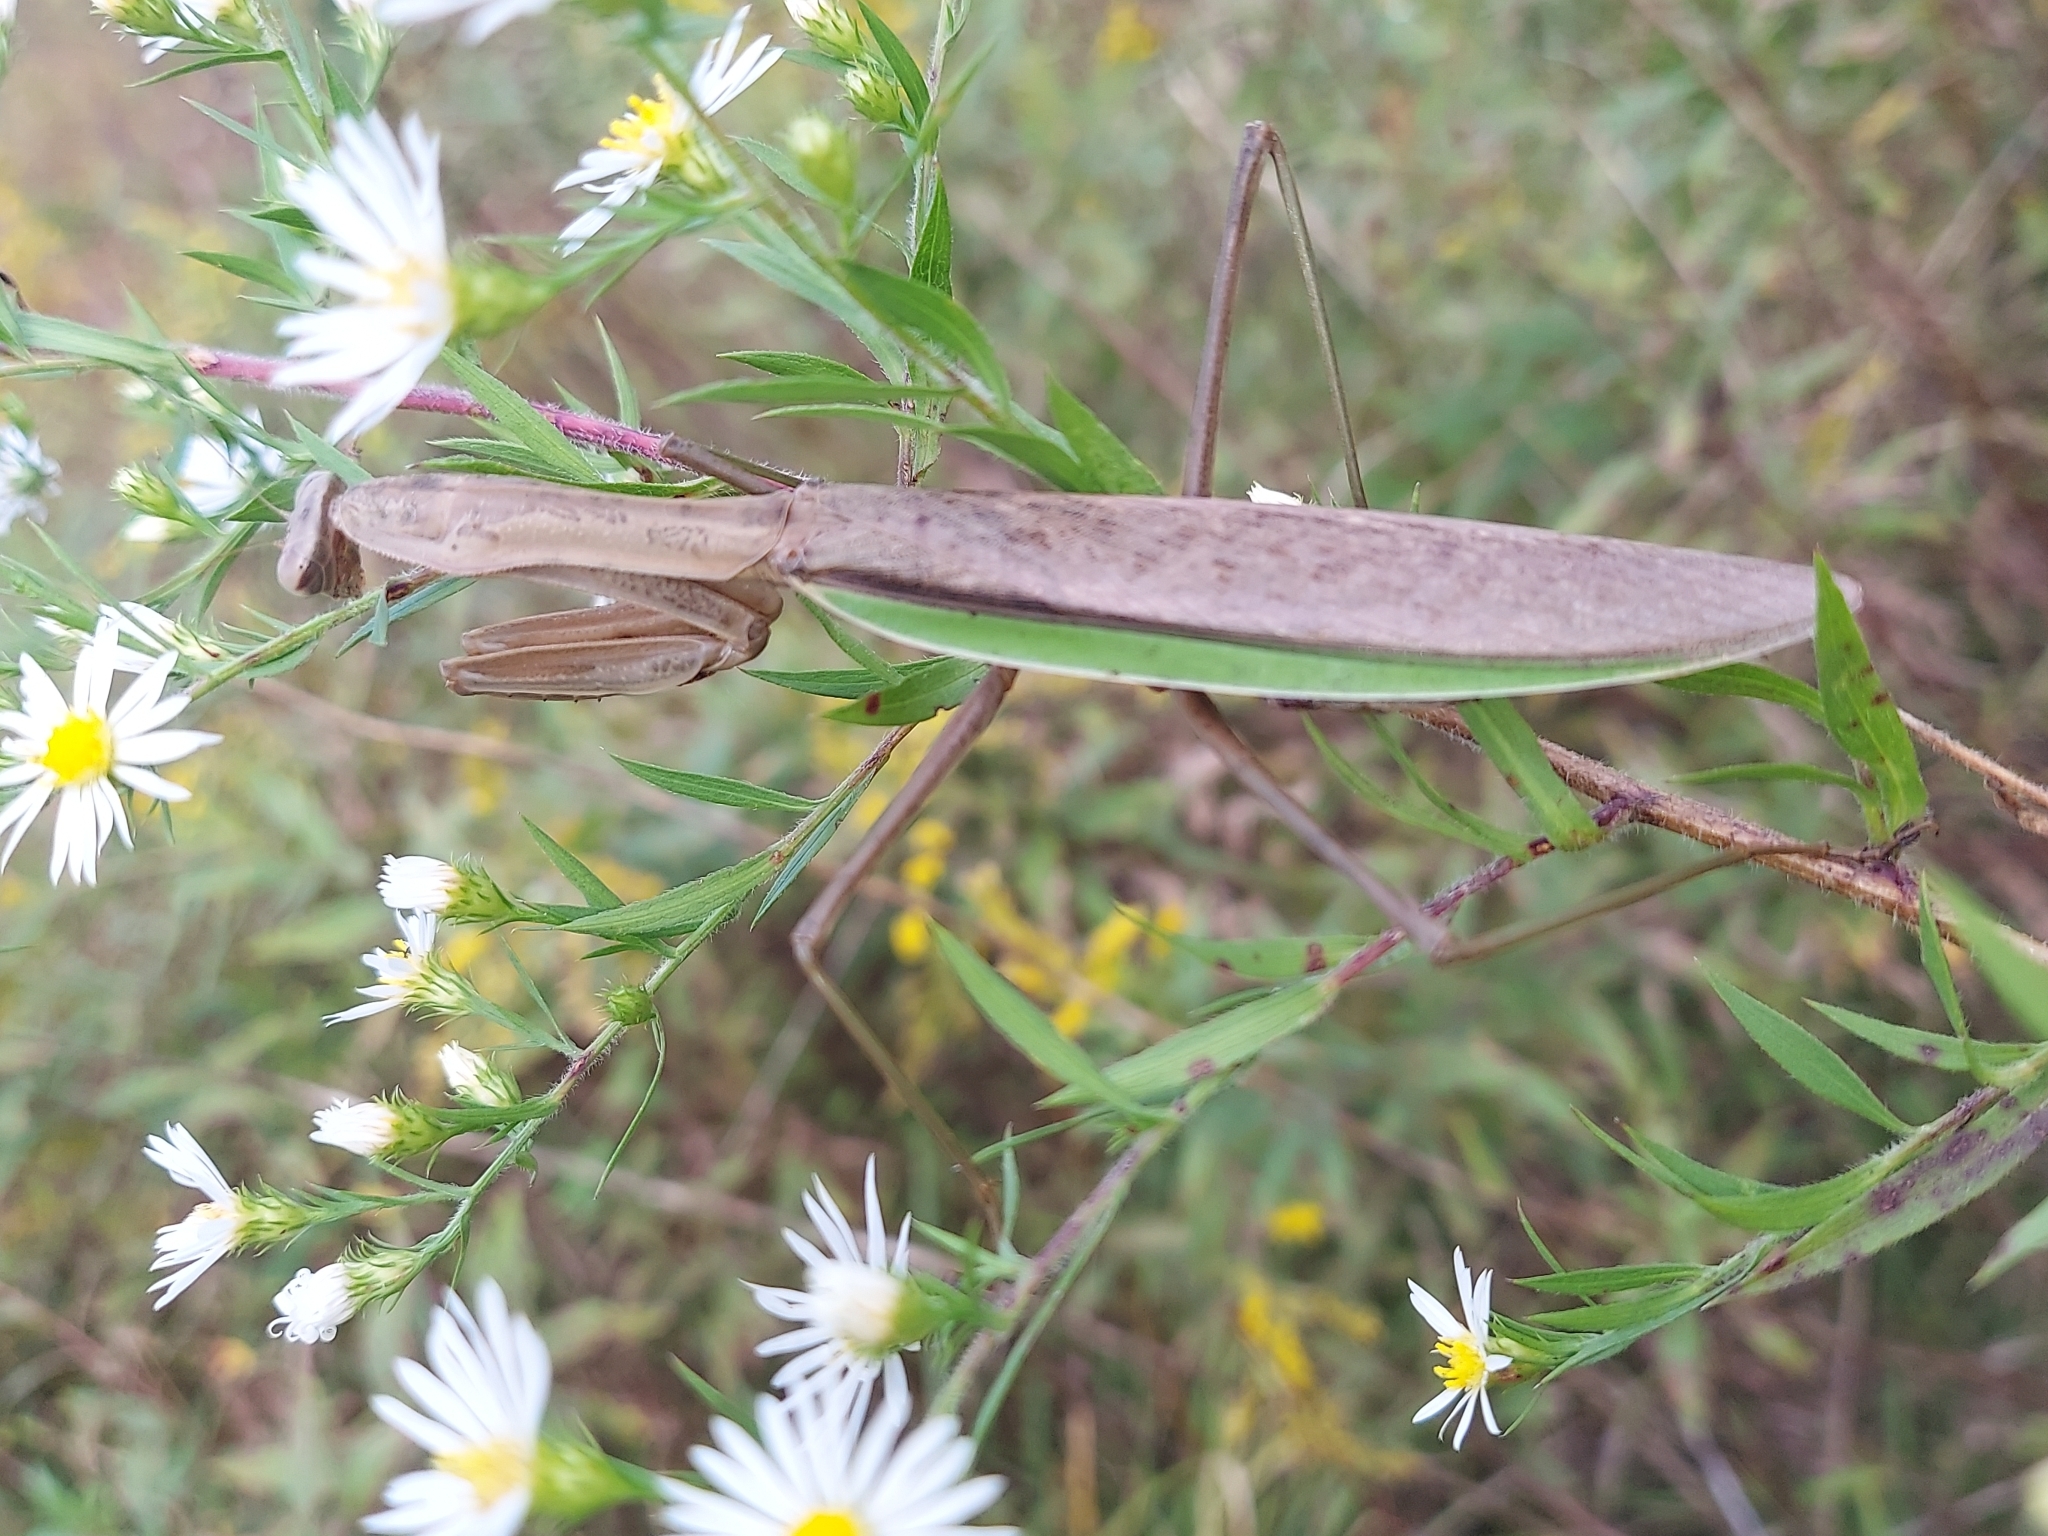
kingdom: Animalia
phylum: Arthropoda
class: Insecta
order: Mantodea
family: Mantidae
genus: Tenodera
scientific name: Tenodera sinensis
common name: Chinese mantis
